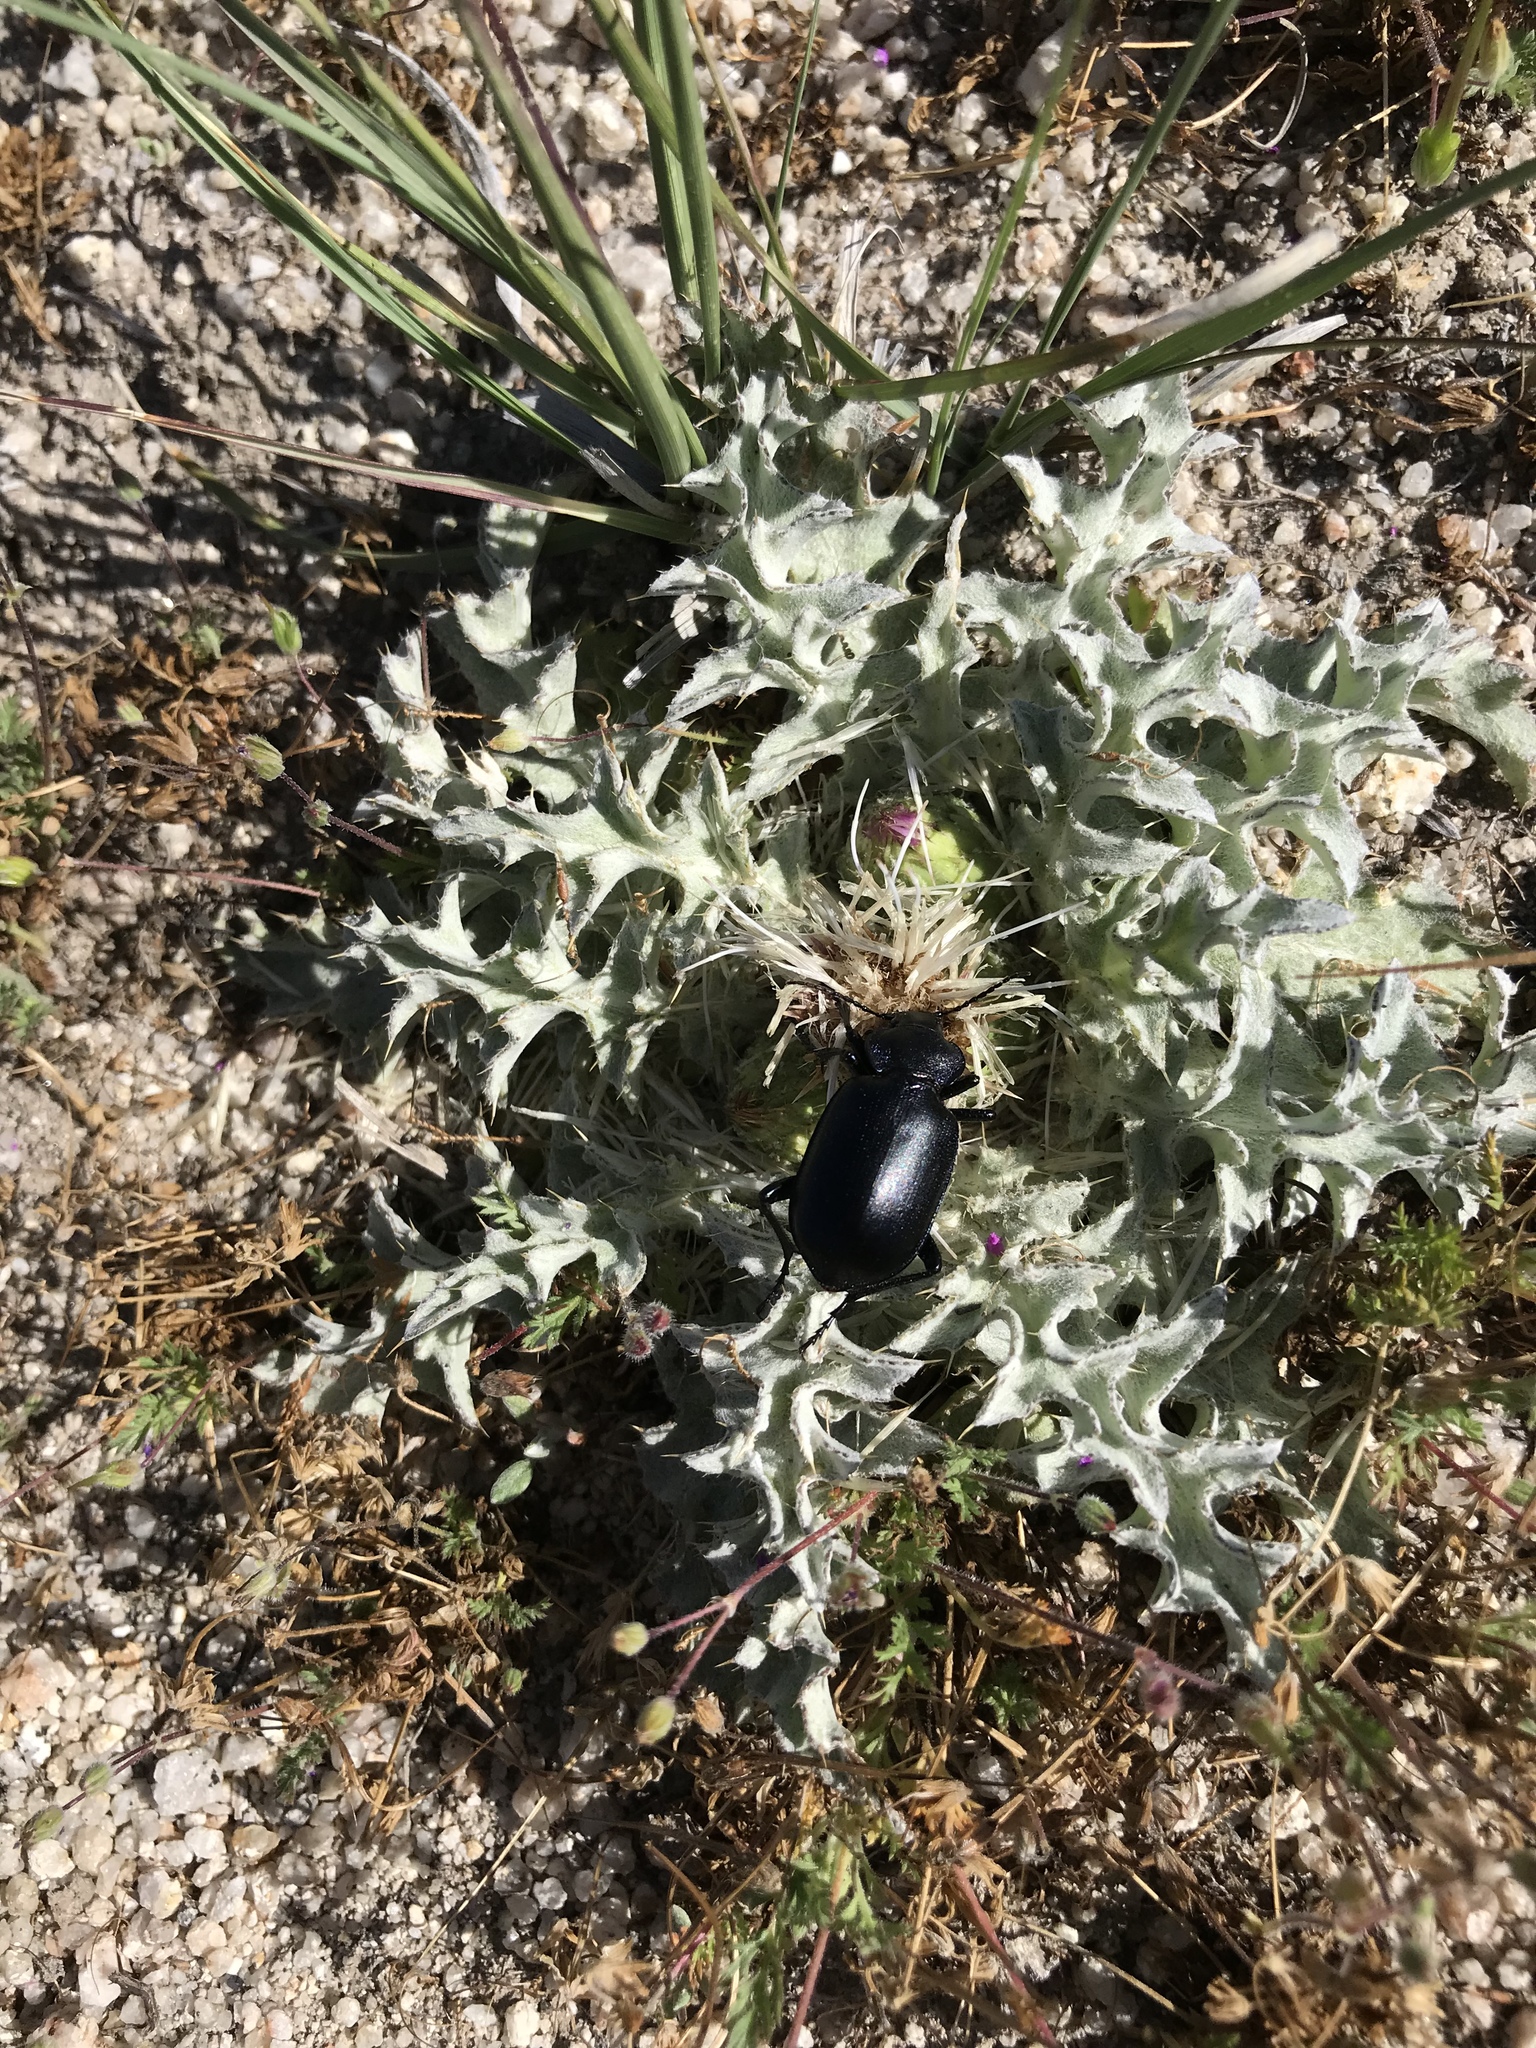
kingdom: Plantae
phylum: Tracheophyta
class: Magnoliopsida
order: Asterales
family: Asteraceae
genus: Cirsium
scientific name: Cirsium scariosum
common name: Meadow thistle
